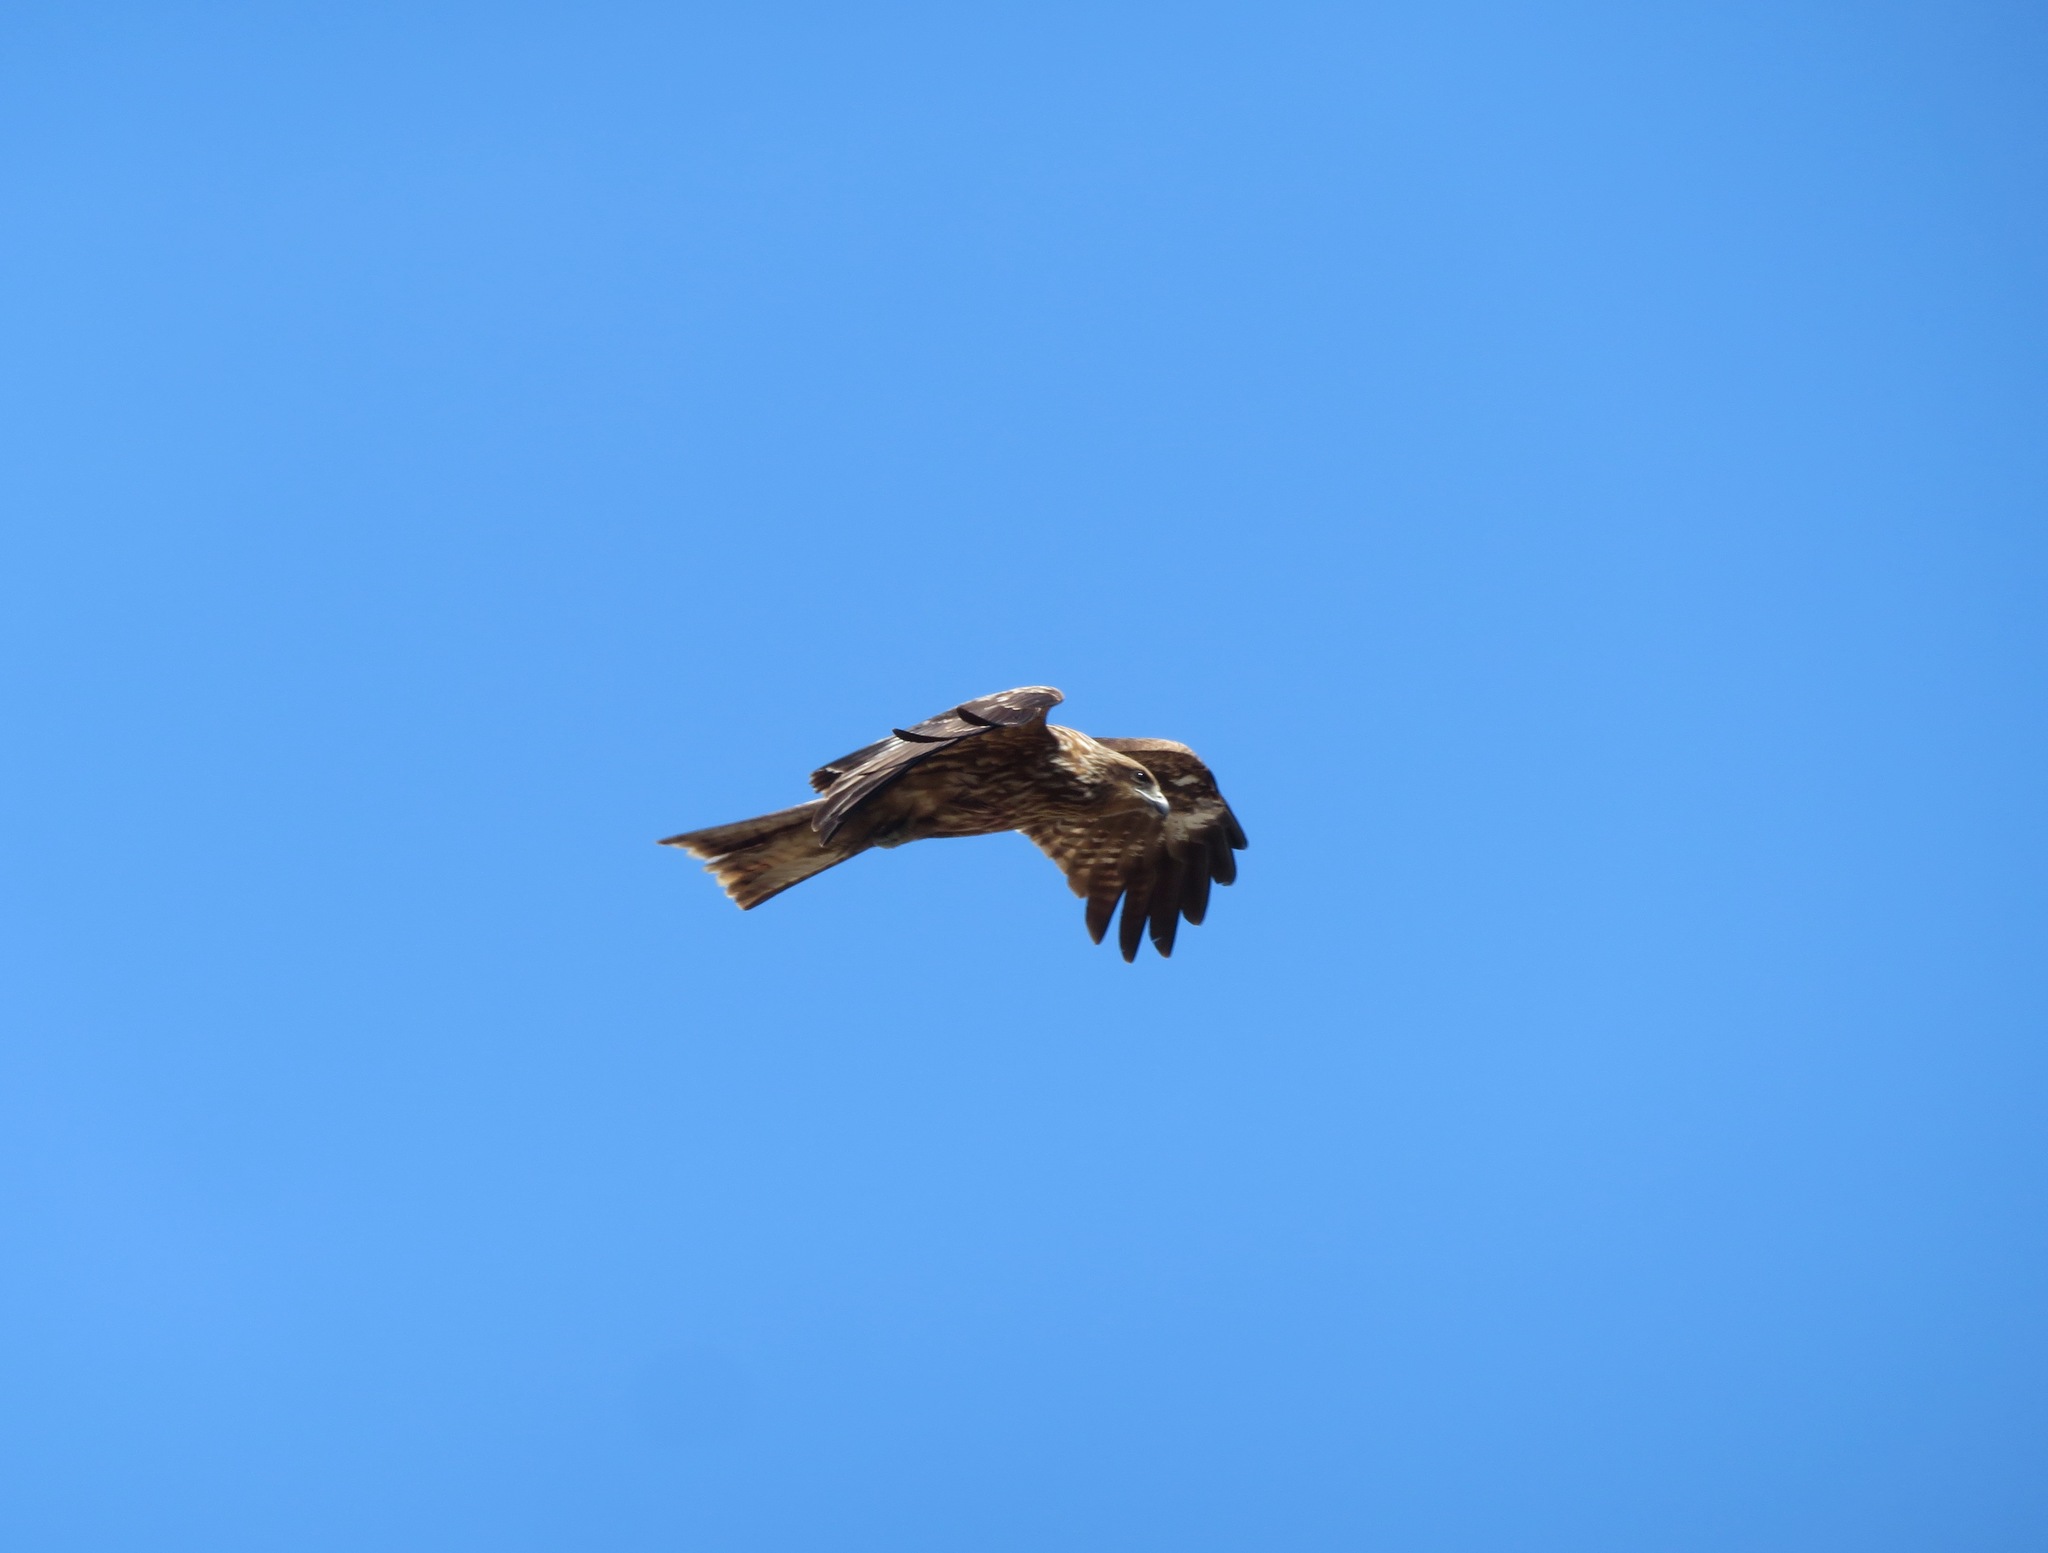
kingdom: Animalia
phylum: Chordata
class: Aves
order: Accipitriformes
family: Accipitridae
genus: Milvus
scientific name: Milvus migrans
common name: Black kite
